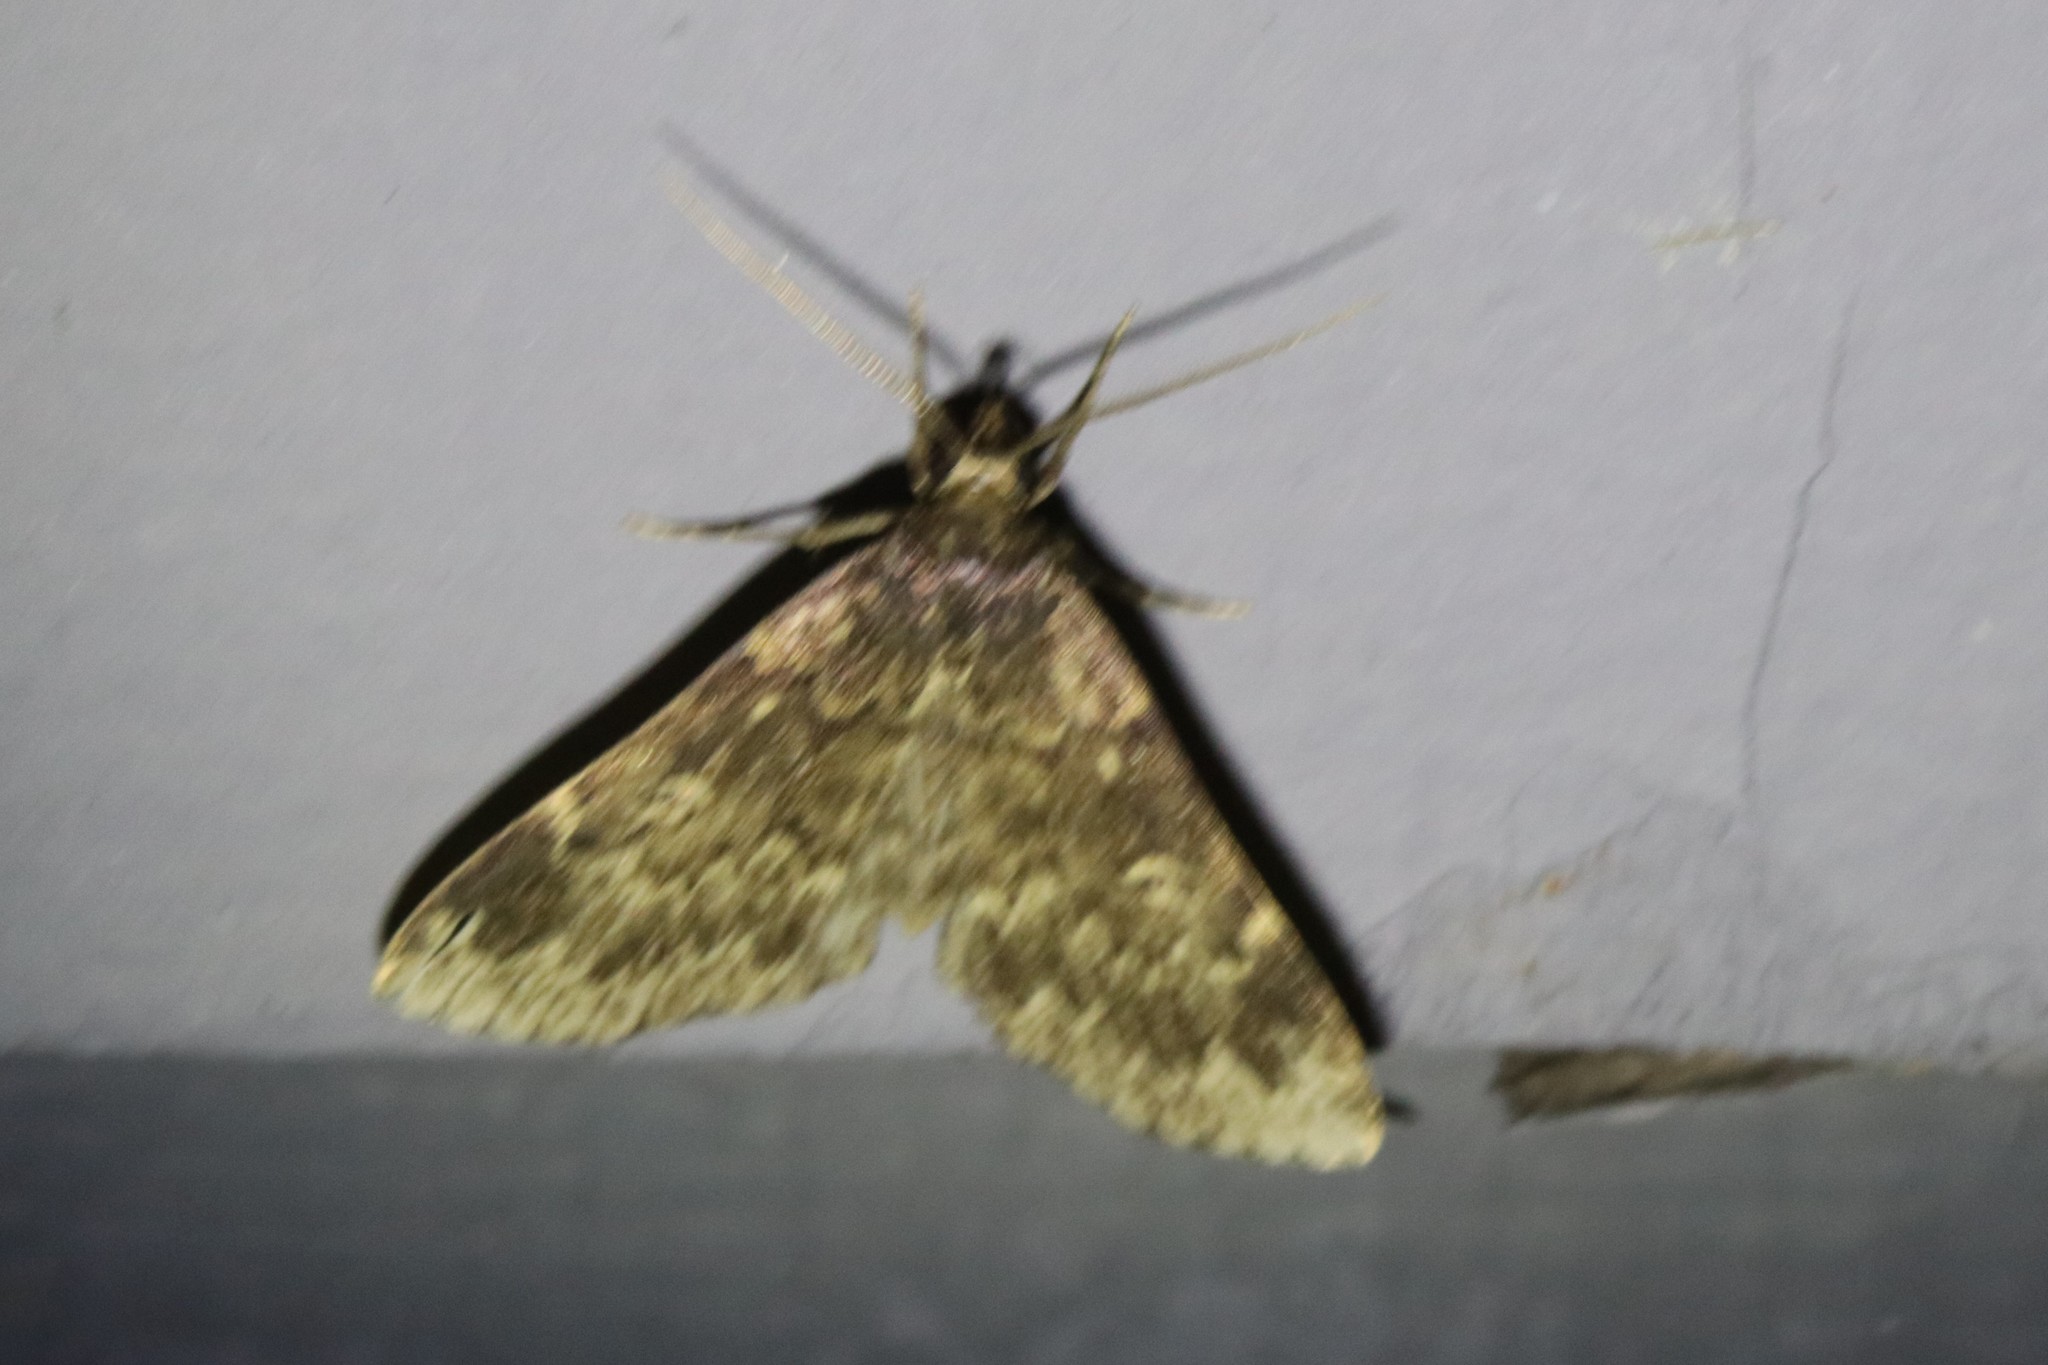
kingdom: Animalia
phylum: Arthropoda
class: Insecta
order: Lepidoptera
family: Erebidae
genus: Idia
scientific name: Idia lubricalis
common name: Twin-striped tabby
